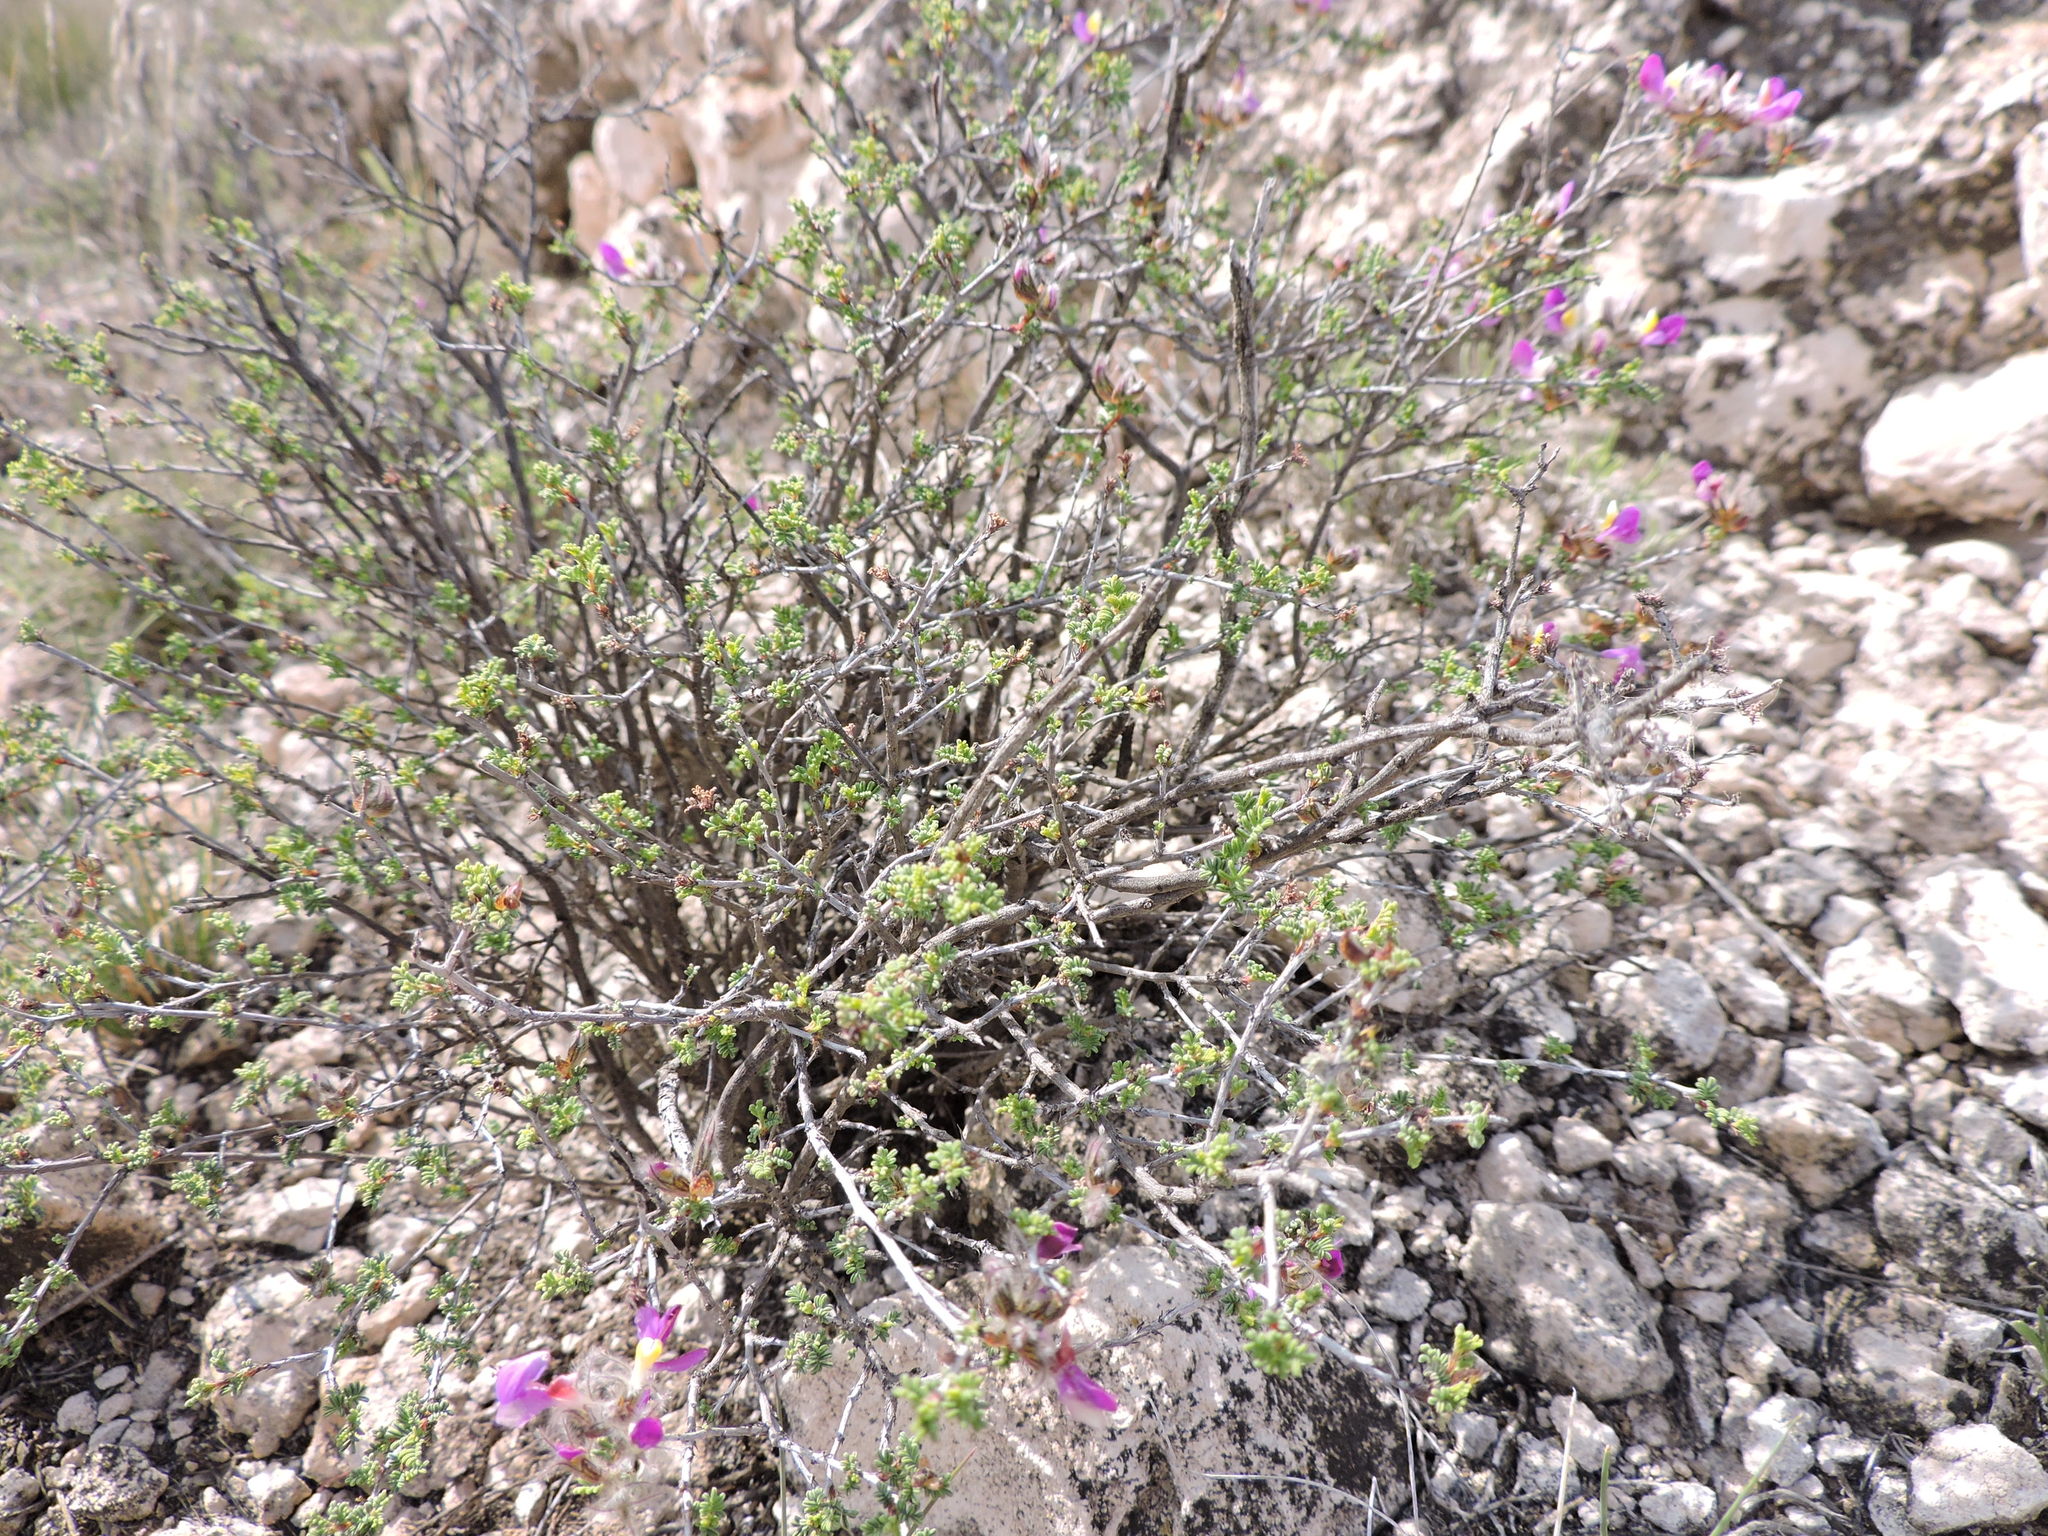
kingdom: Plantae
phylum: Tracheophyta
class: Magnoliopsida
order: Fabales
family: Fabaceae
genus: Dalea
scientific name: Dalea formosa
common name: Feather-plume dalea
